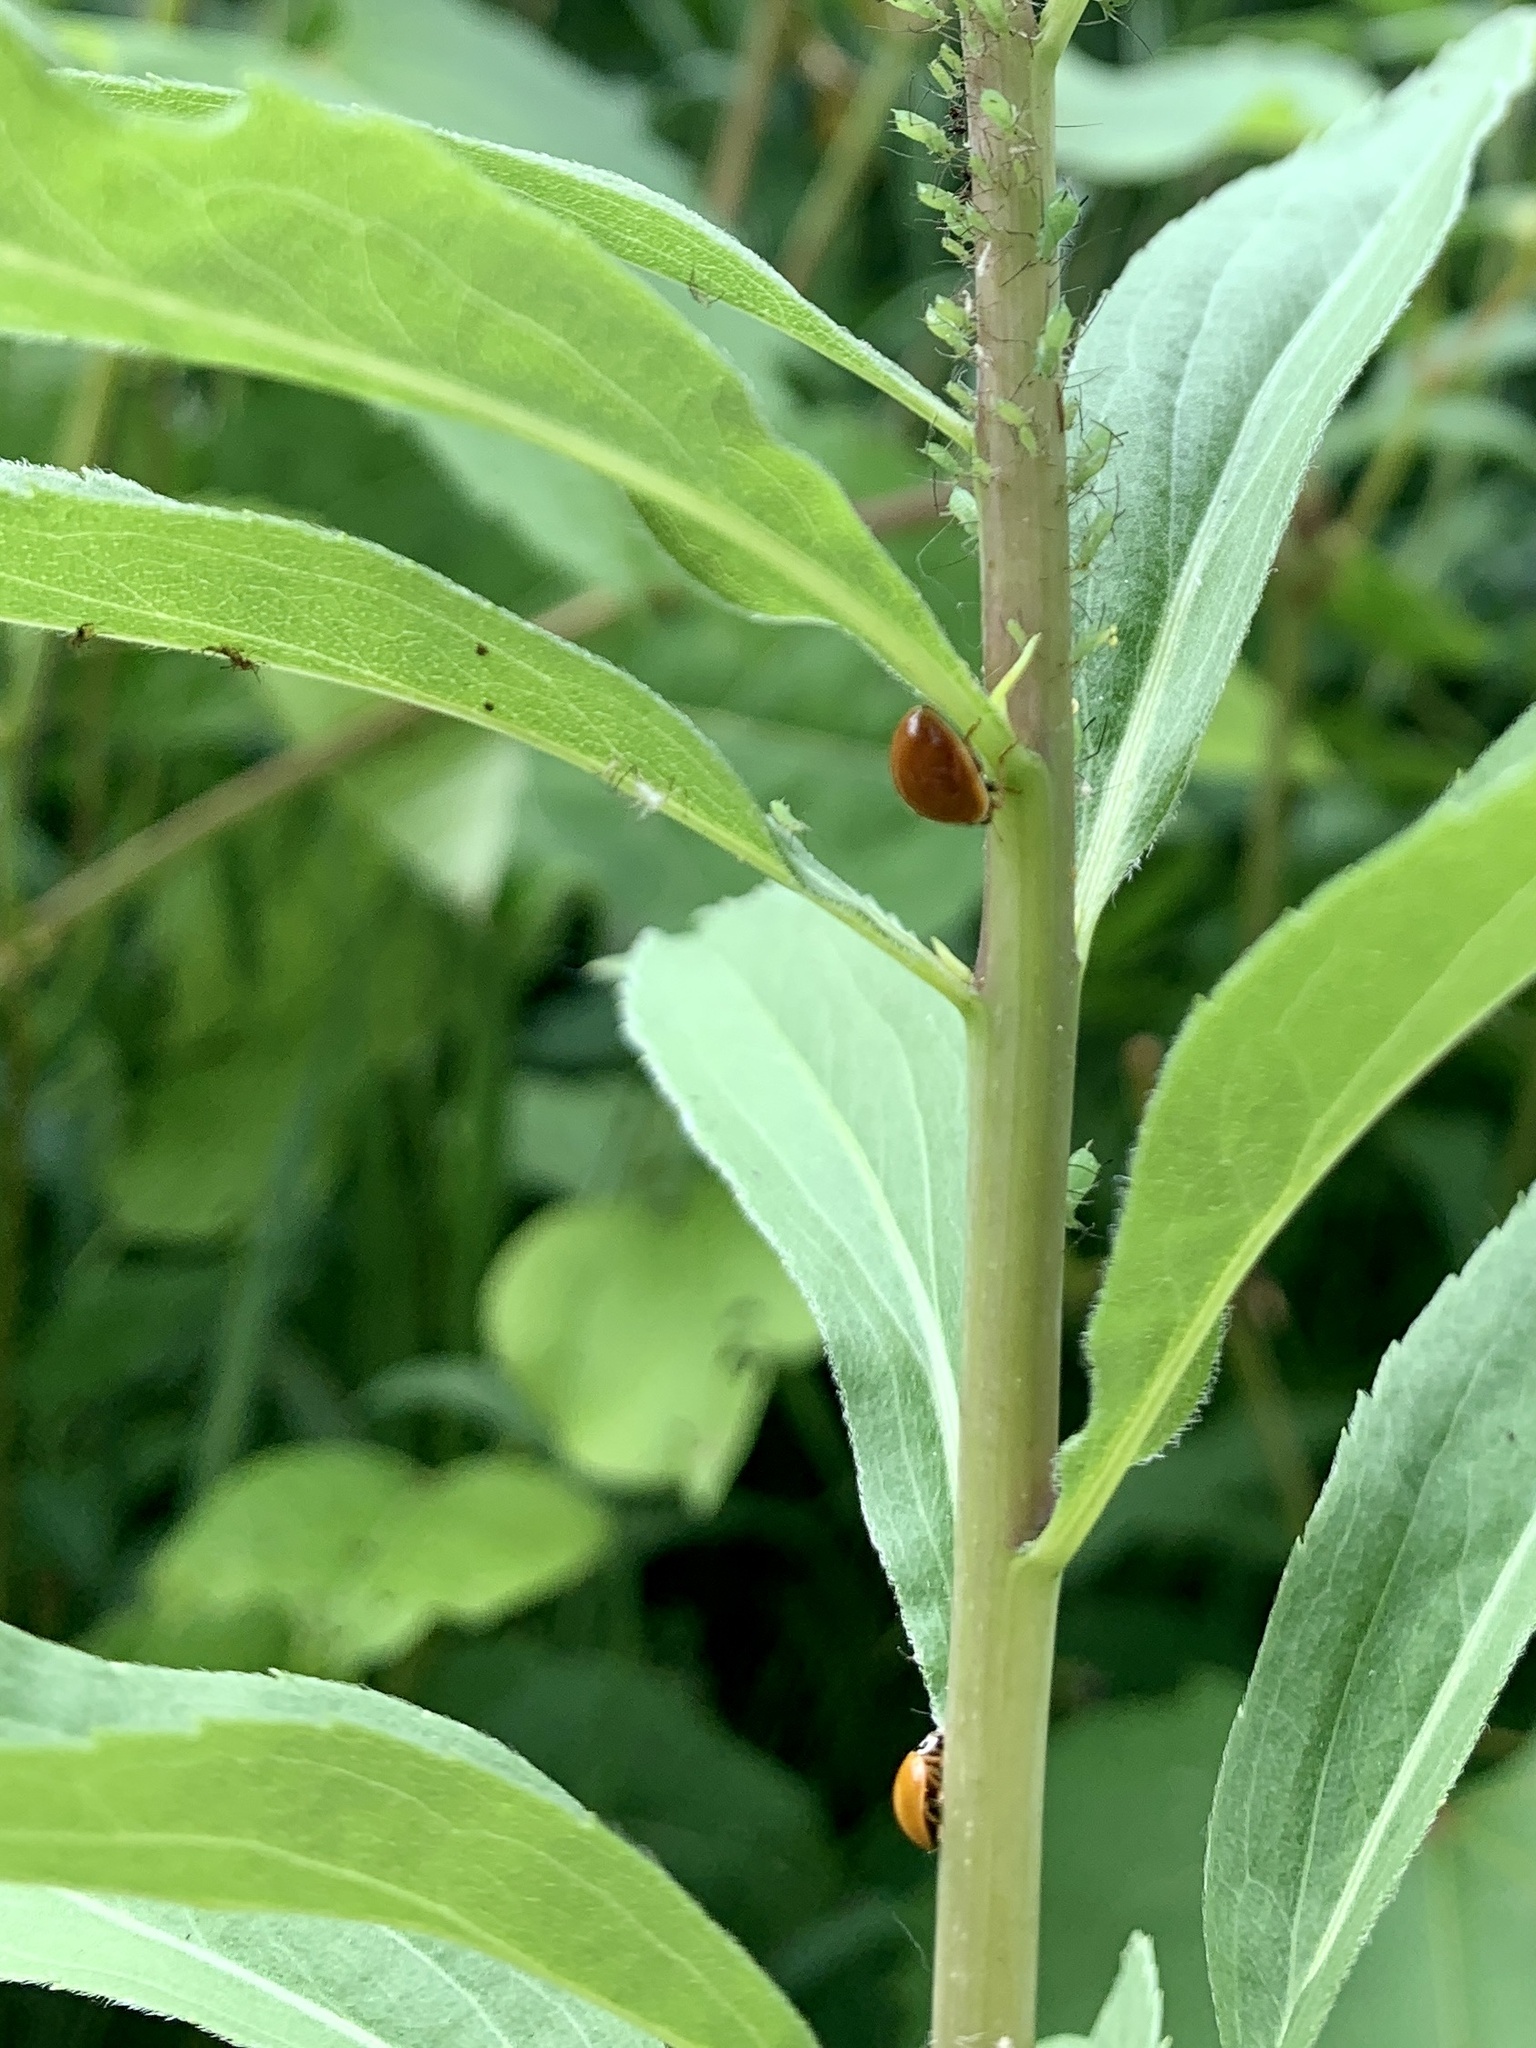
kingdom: Animalia
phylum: Arthropoda
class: Insecta
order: Coleoptera
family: Coccinellidae
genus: Cycloneda
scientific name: Cycloneda munda
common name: Polished lady beetle
